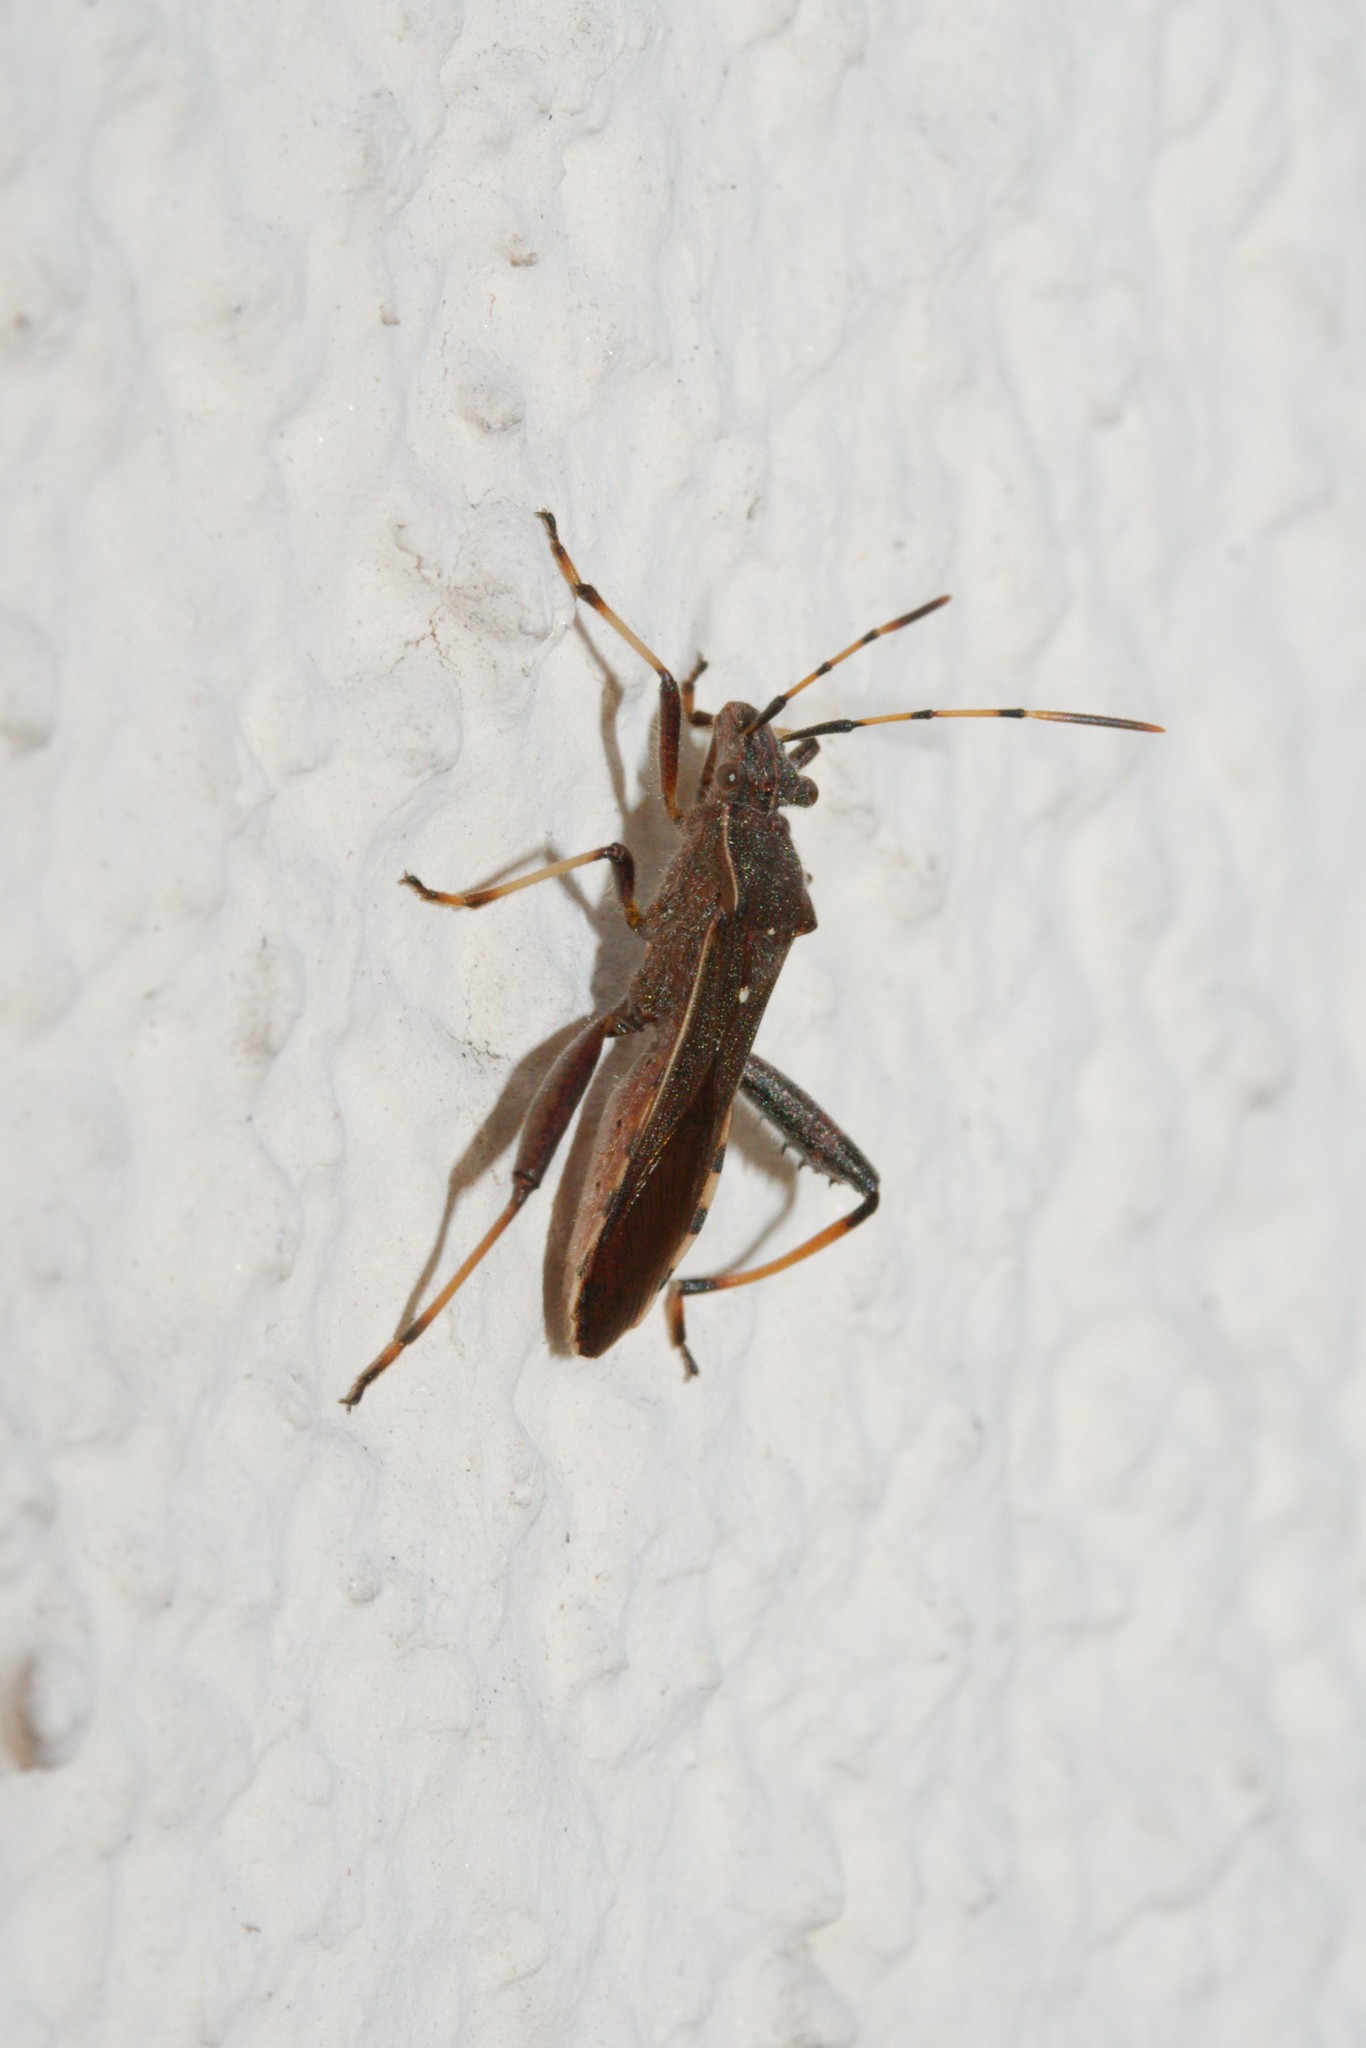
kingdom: Animalia
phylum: Arthropoda
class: Insecta
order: Hemiptera
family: Alydidae
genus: Camptopus
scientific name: Camptopus lateralis
